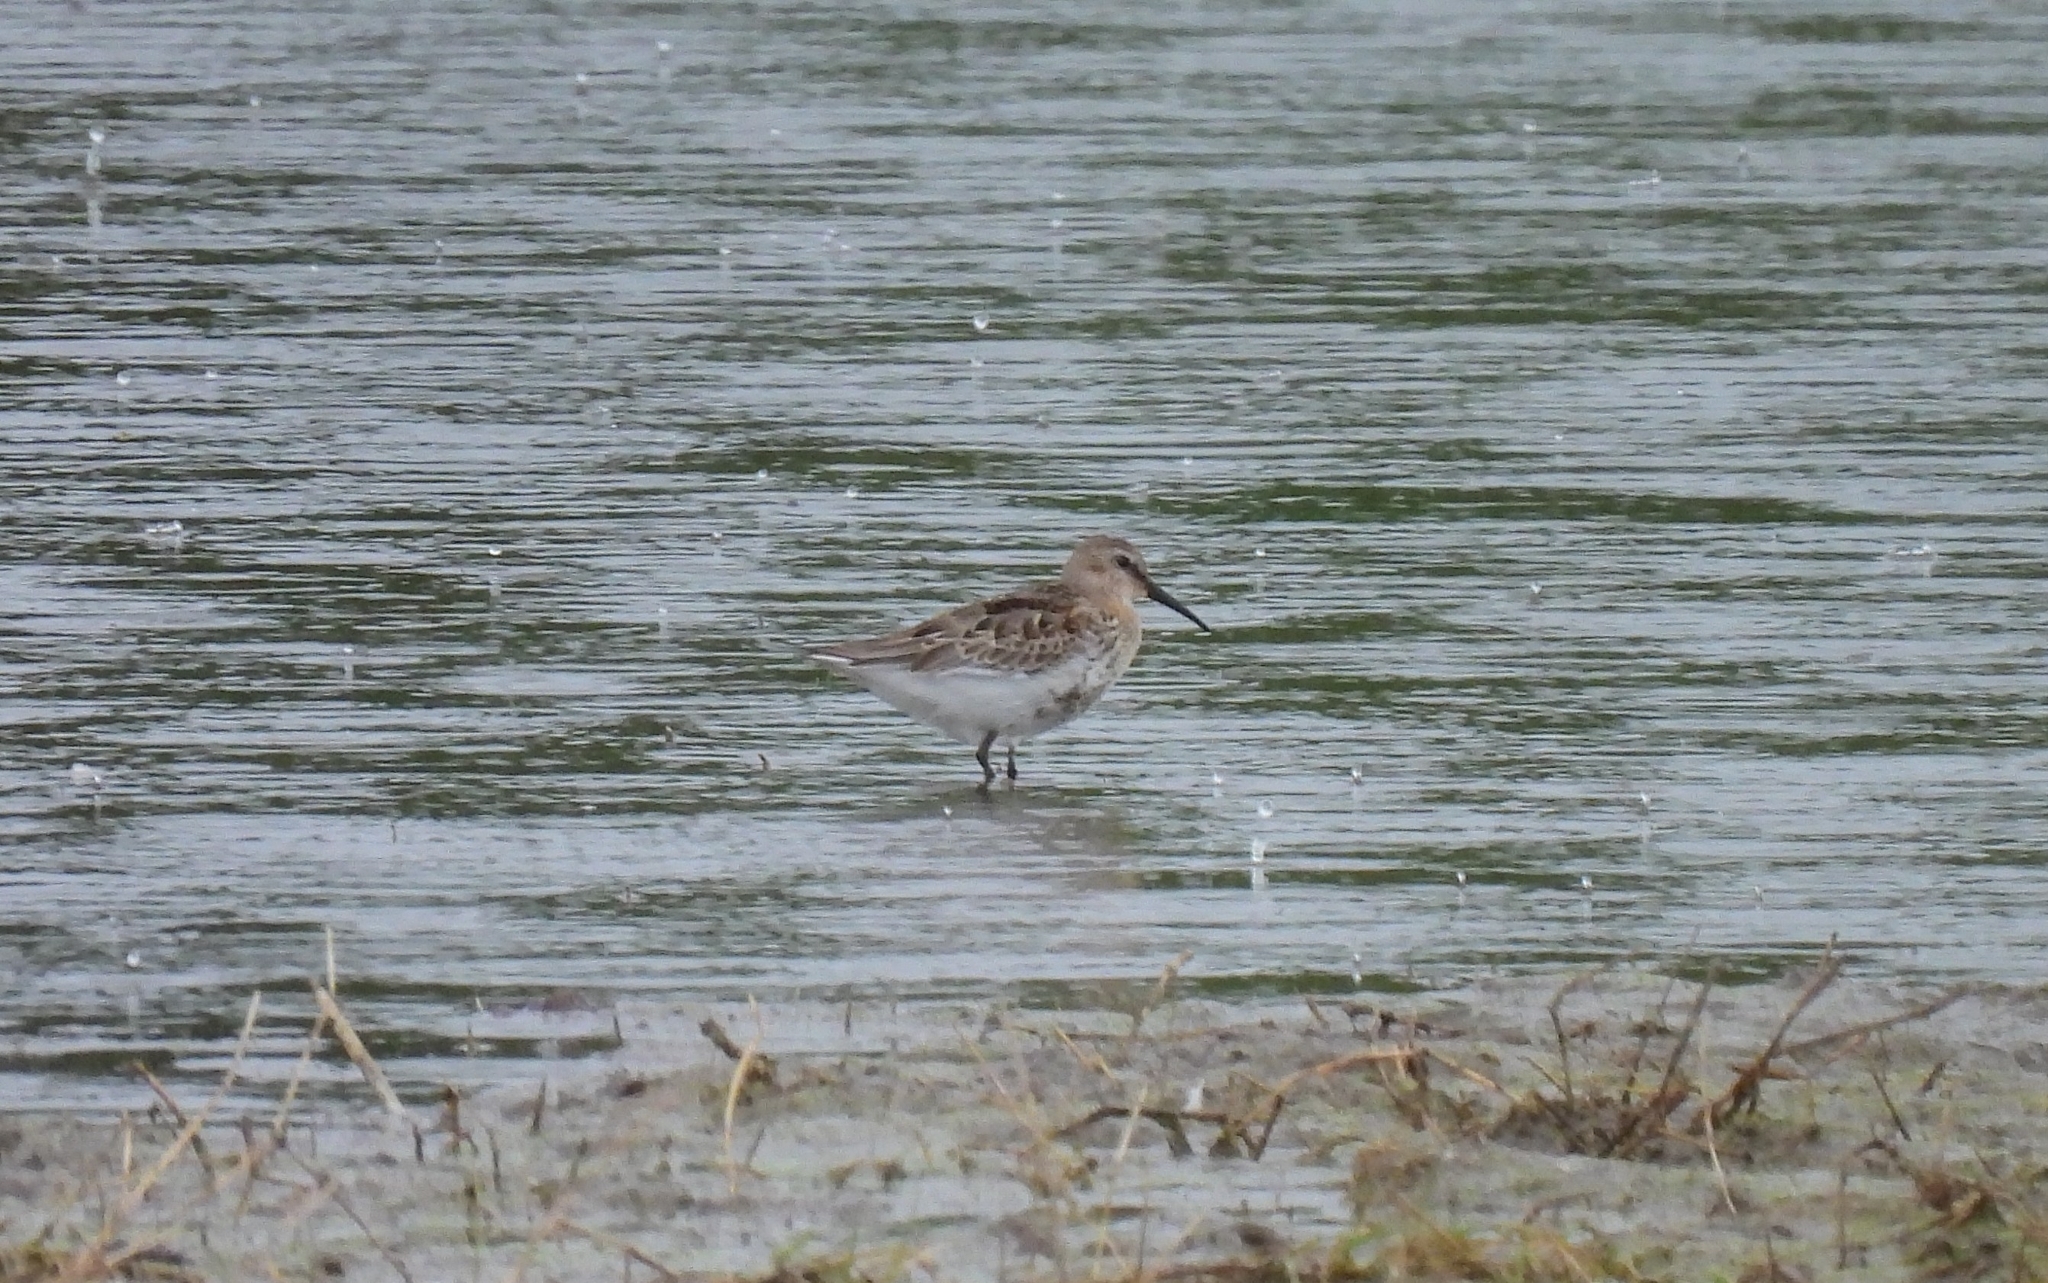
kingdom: Animalia
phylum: Chordata
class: Aves
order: Charadriiformes
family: Scolopacidae
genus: Calidris
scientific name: Calidris alpina
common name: Dunlin
